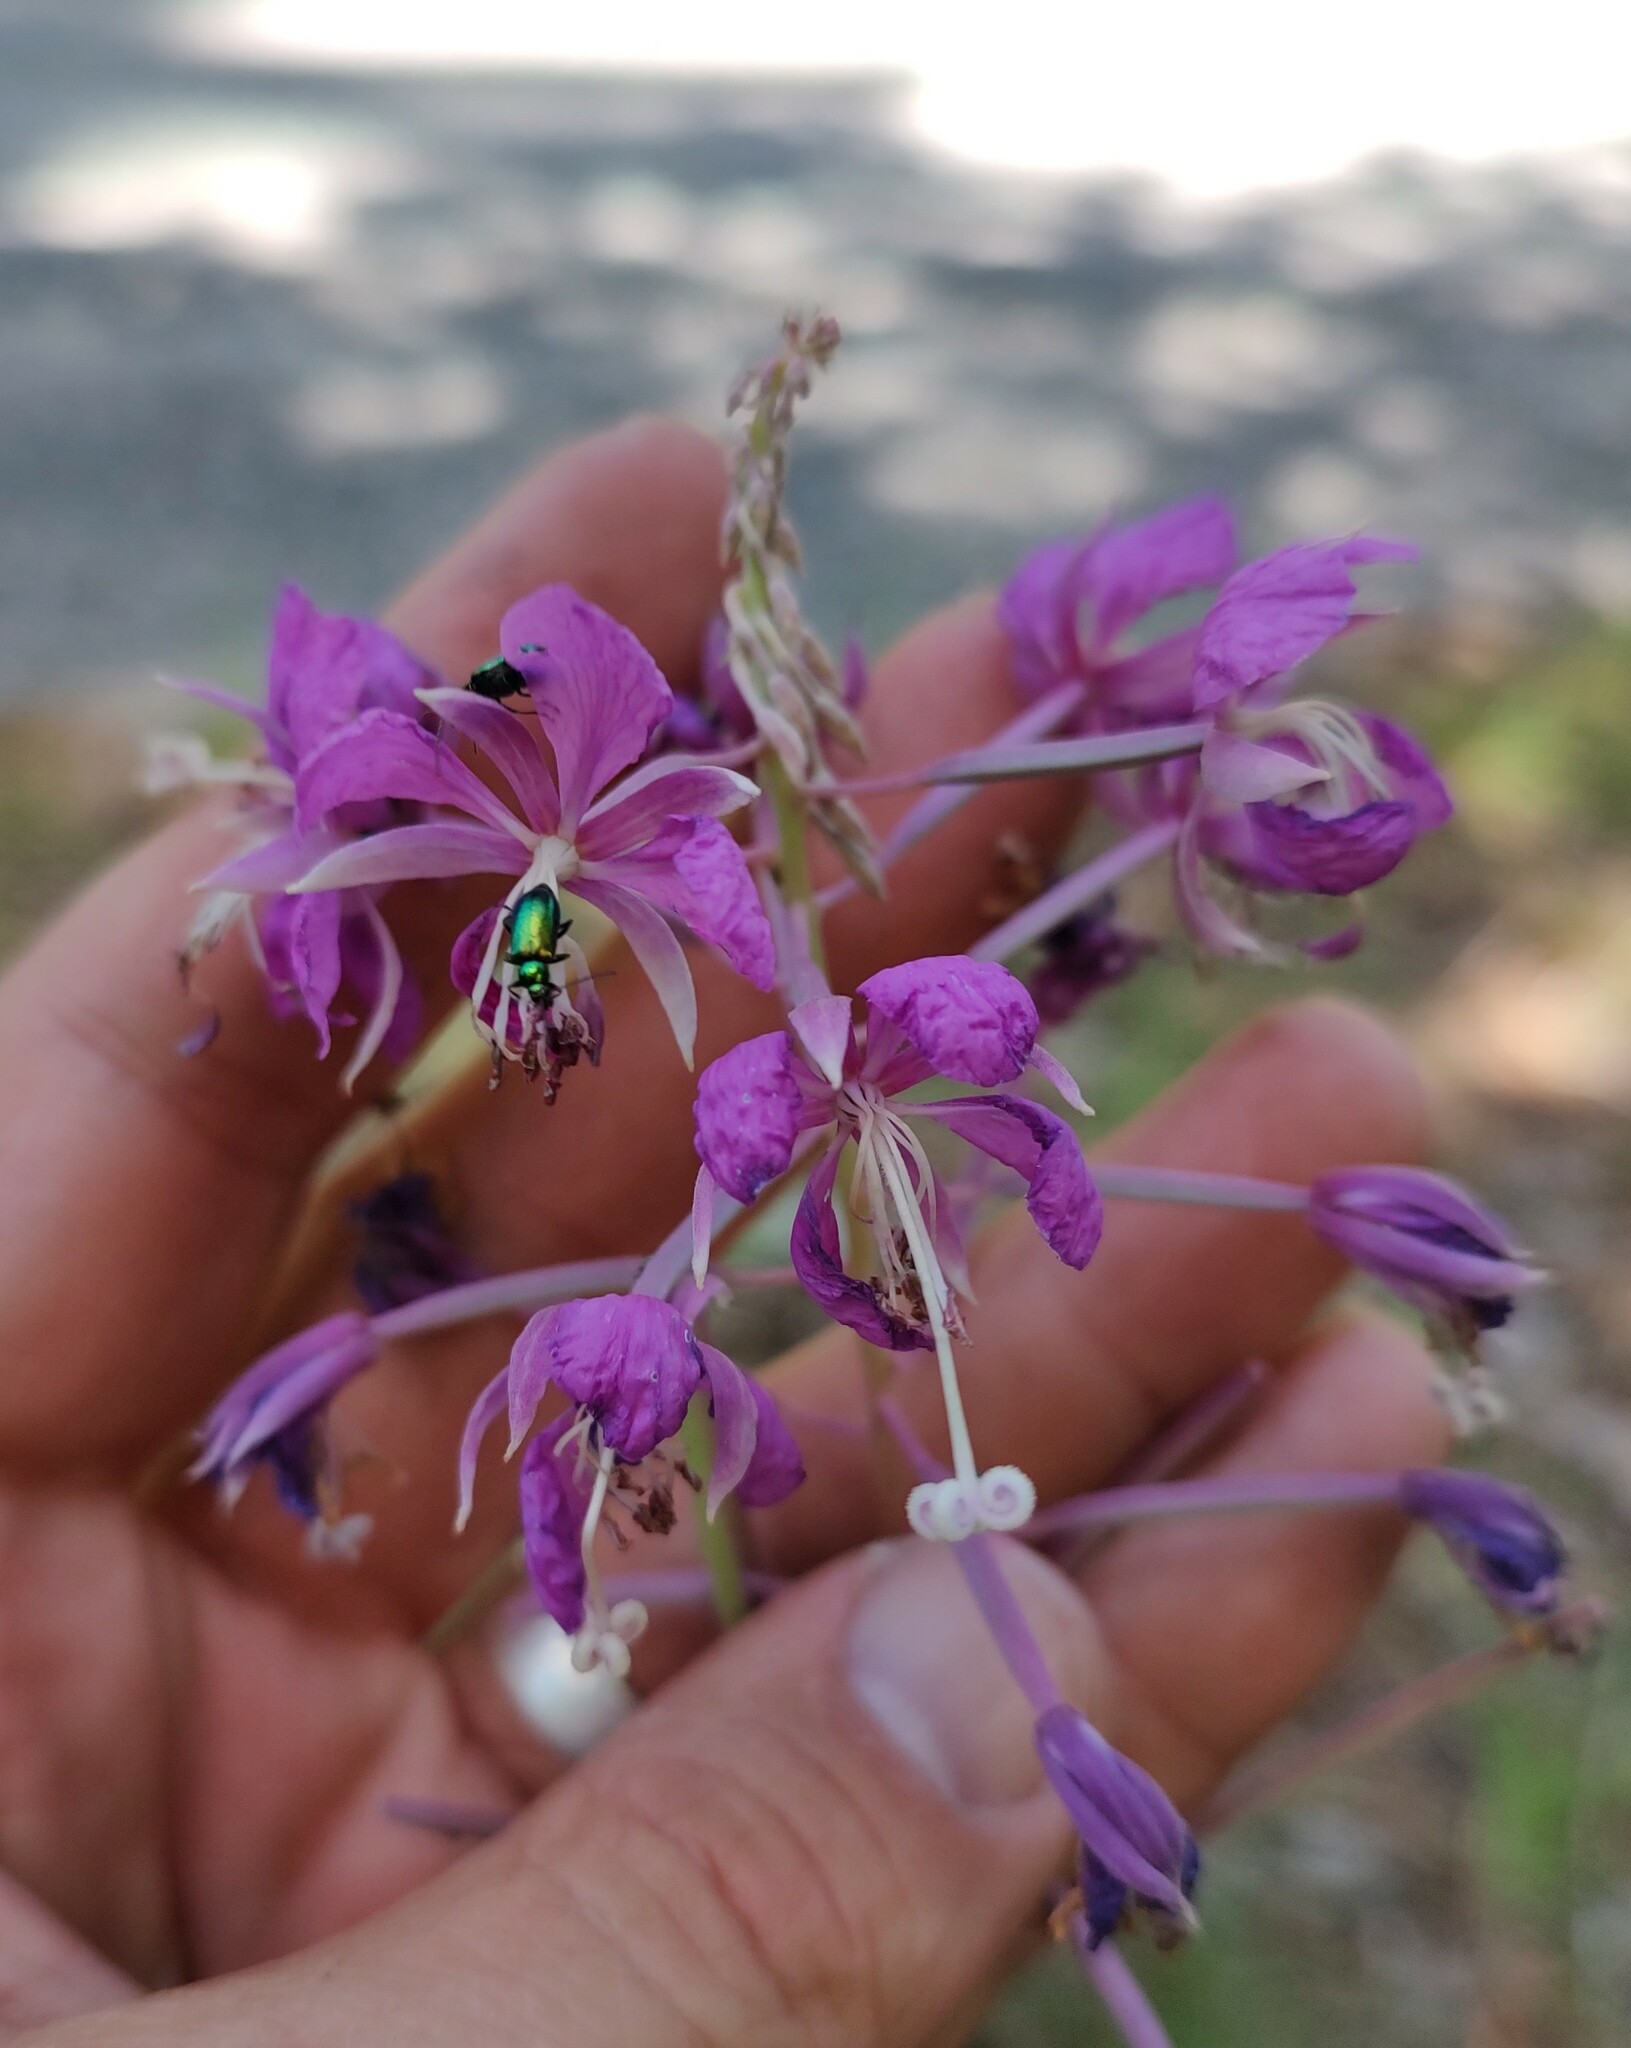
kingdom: Plantae
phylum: Tracheophyta
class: Magnoliopsida
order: Myrtales
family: Onagraceae
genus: Chamaenerion
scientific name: Chamaenerion angustifolium
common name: Fireweed
